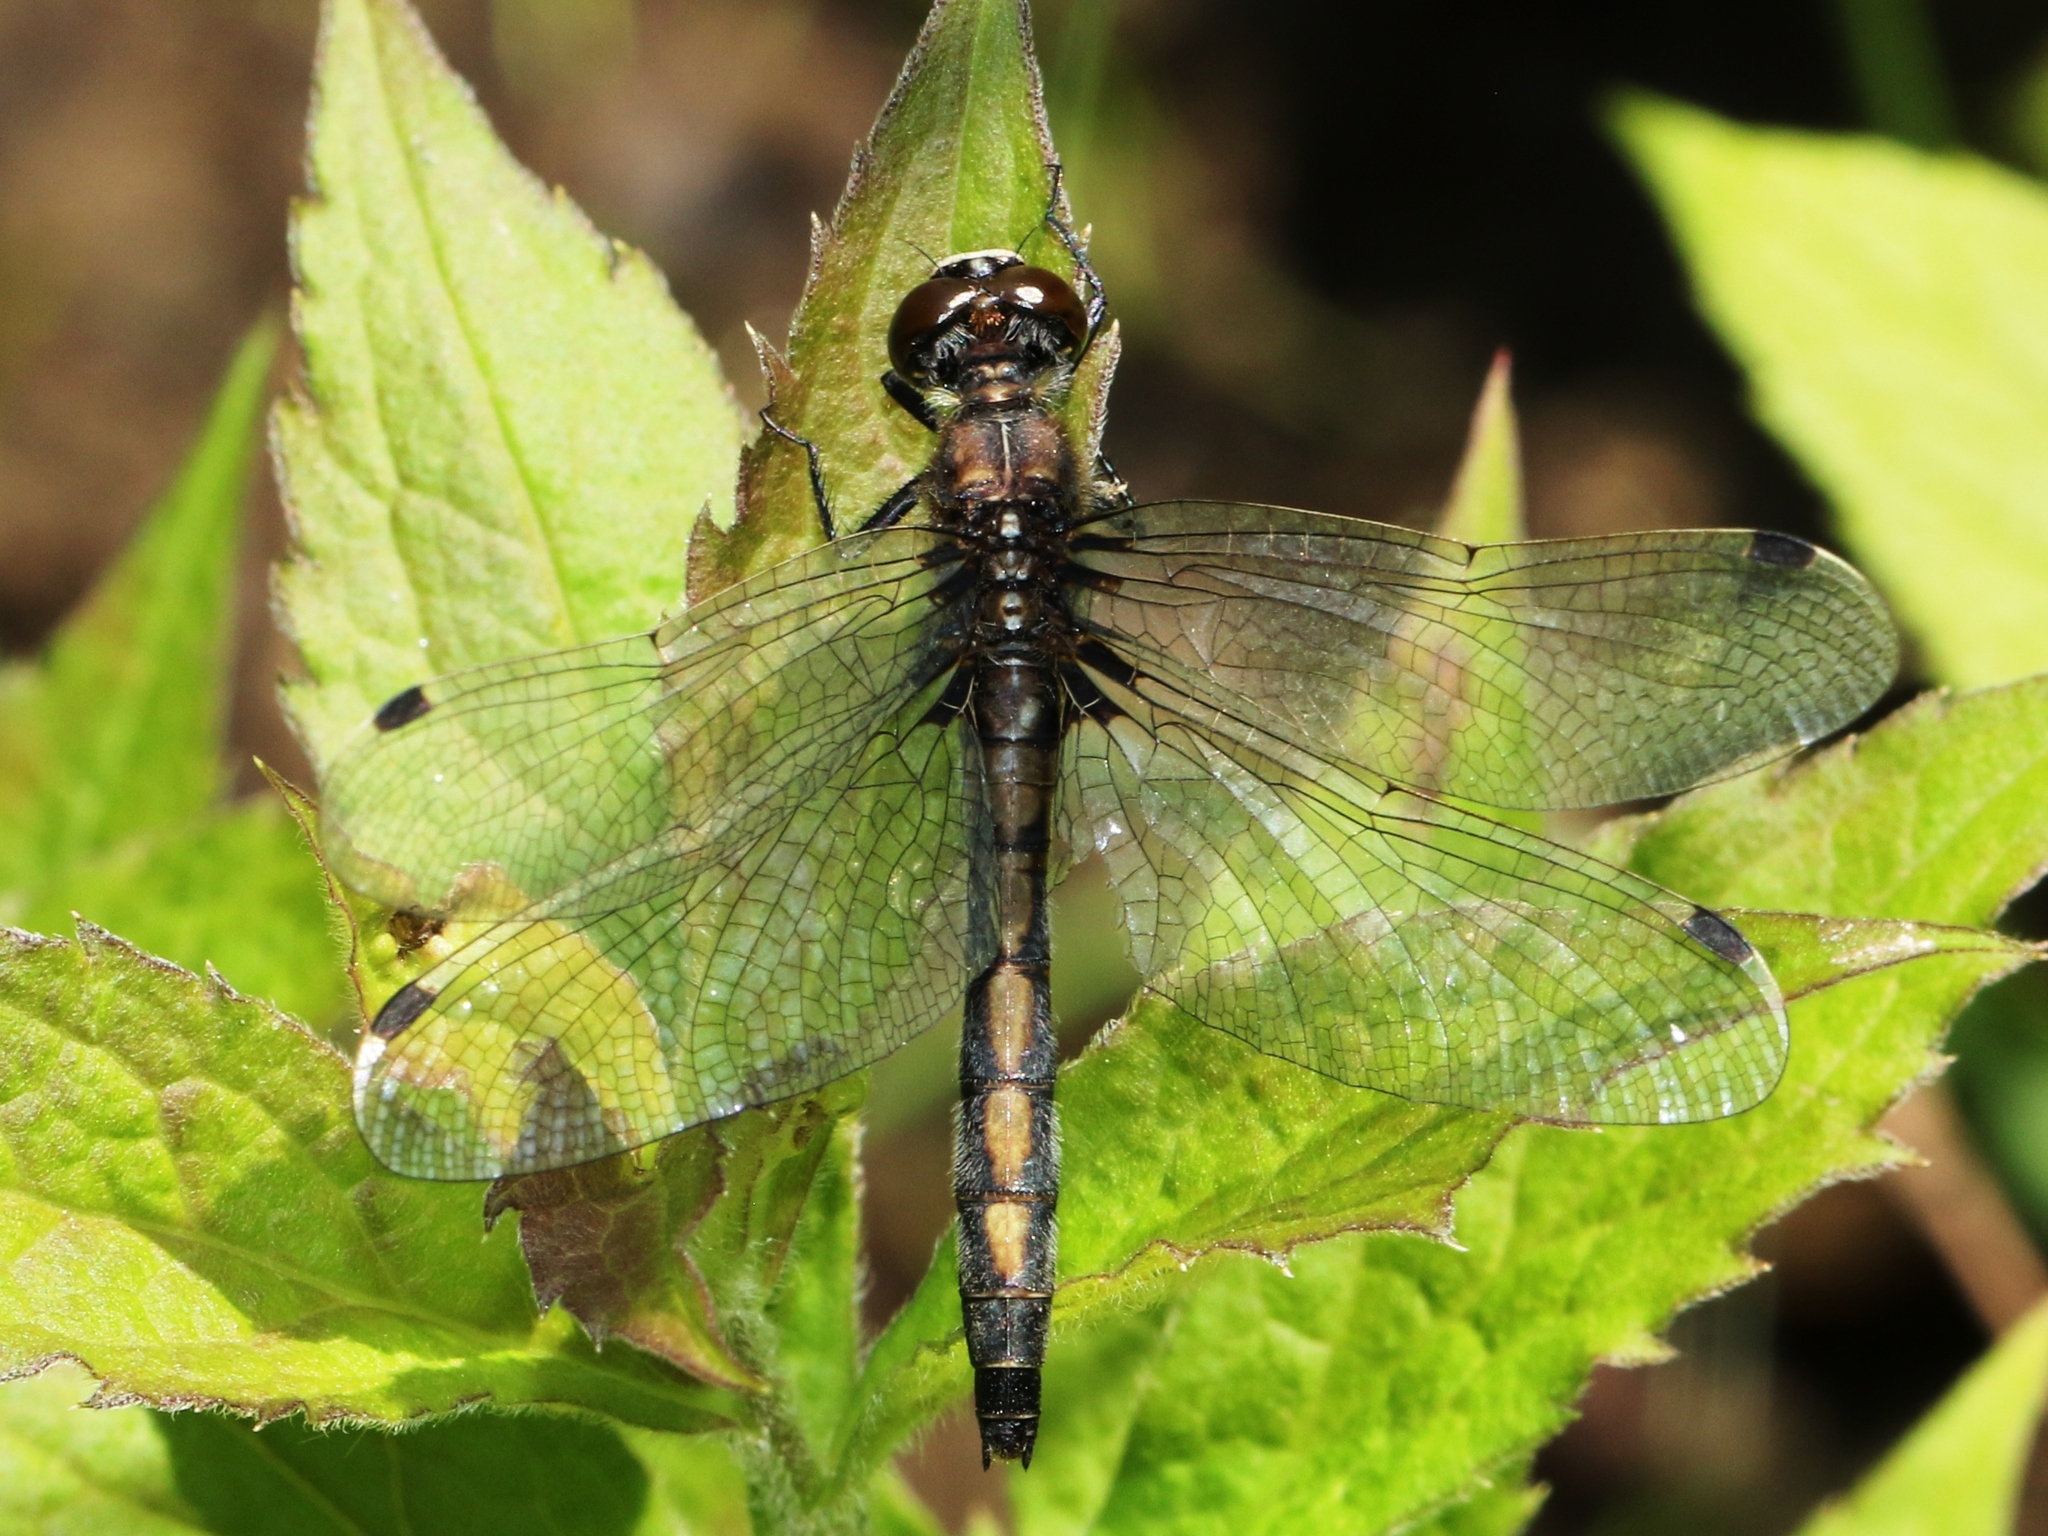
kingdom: Animalia
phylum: Arthropoda
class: Insecta
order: Odonata
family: Libellulidae
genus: Leucorrhinia
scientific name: Leucorrhinia hudsonica
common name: Hudsonian whiteface
